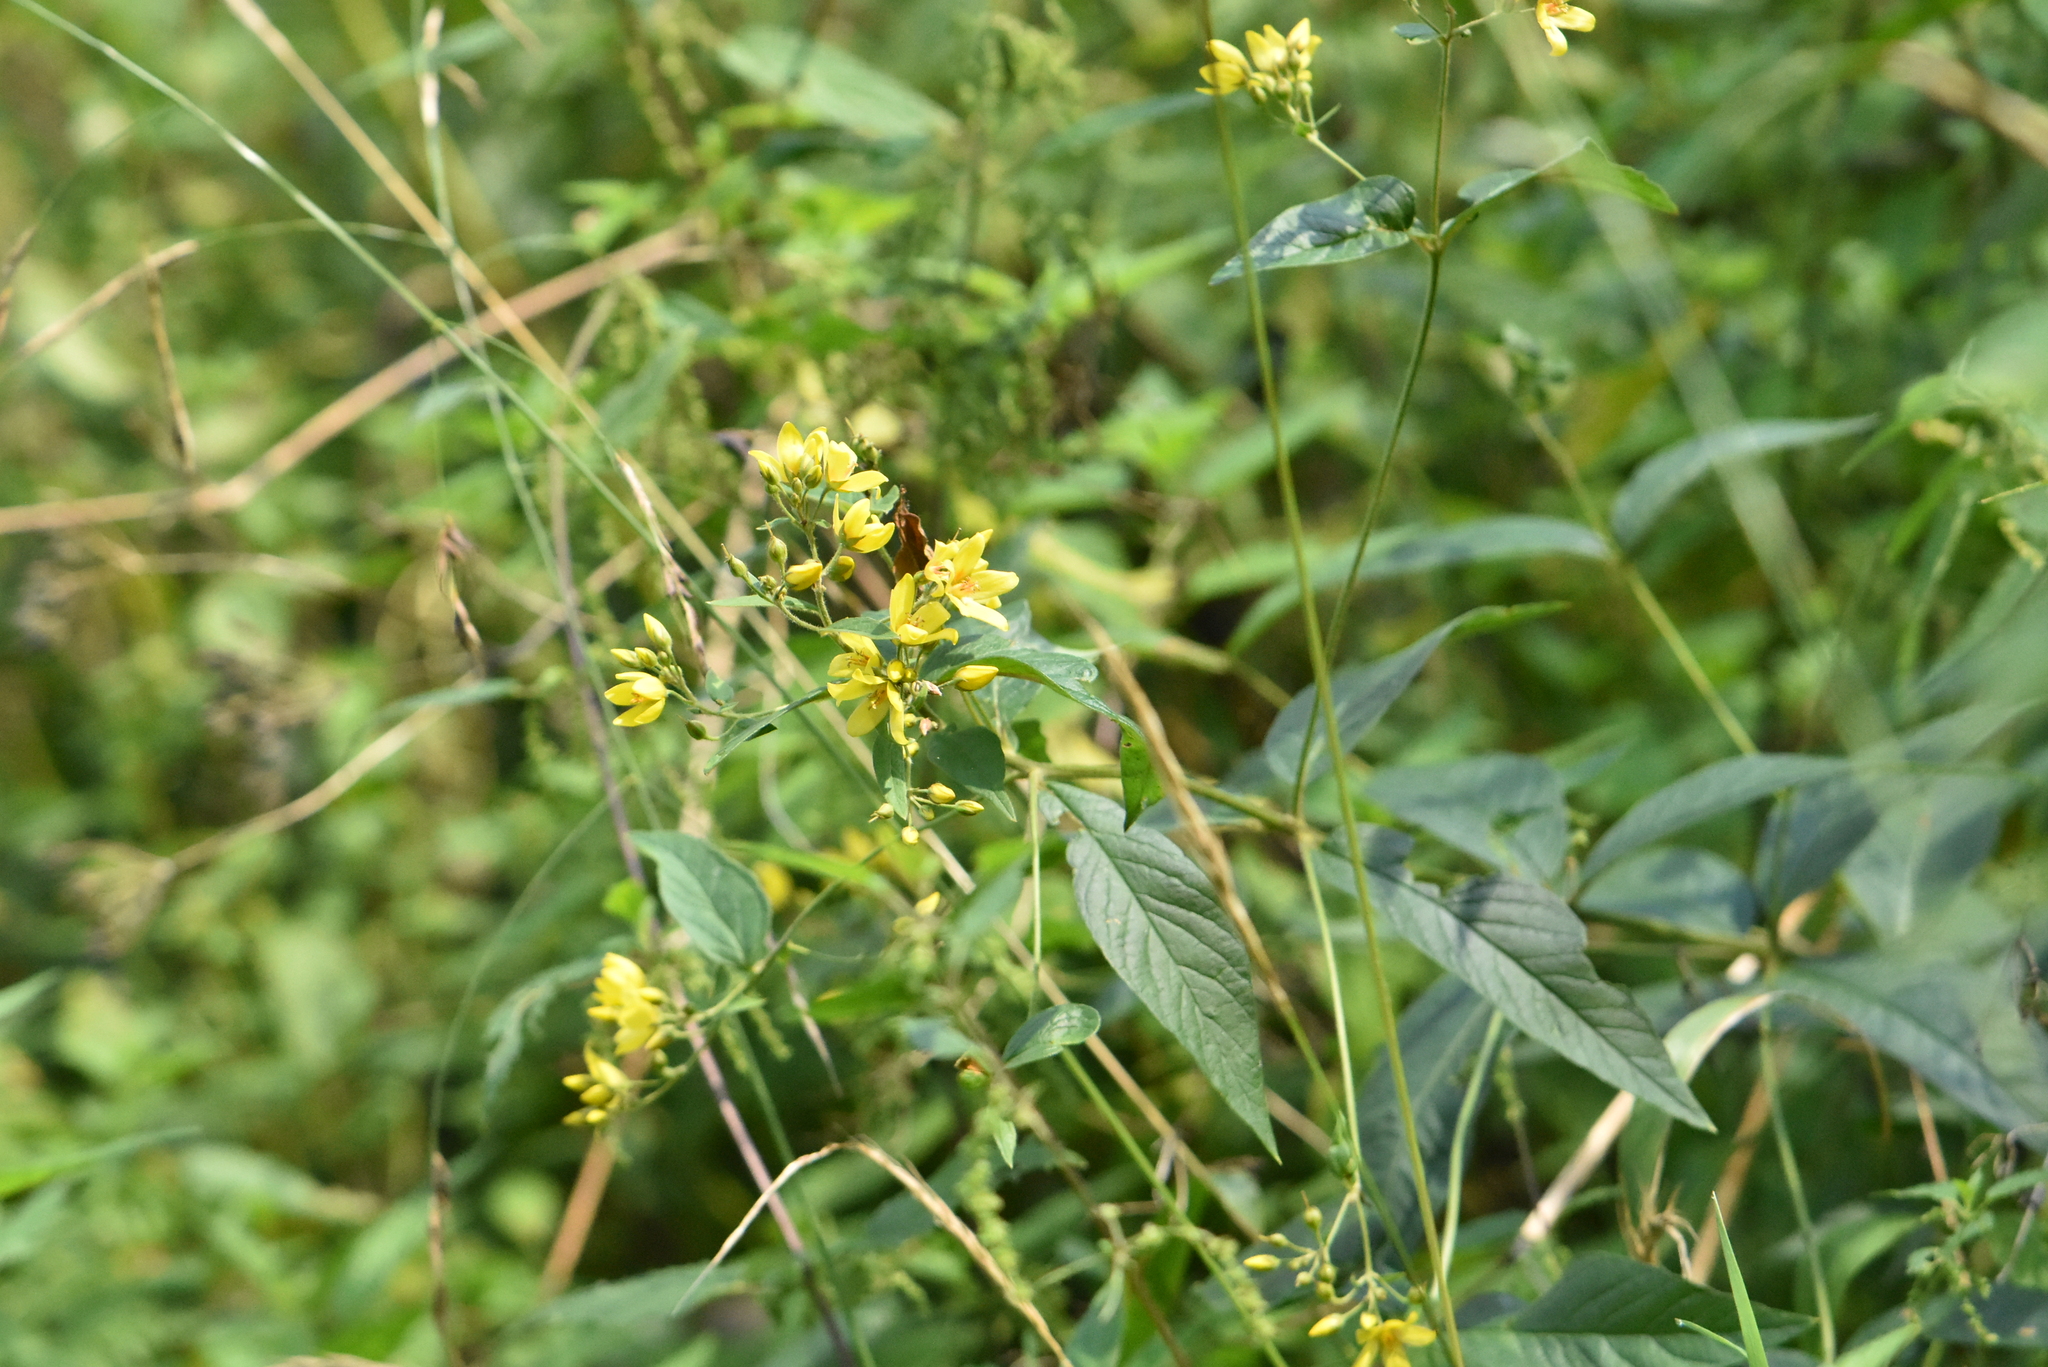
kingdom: Plantae
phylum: Tracheophyta
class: Magnoliopsida
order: Ericales
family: Primulaceae
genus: Lysimachia
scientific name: Lysimachia vulgaris
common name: Yellow loosestrife
